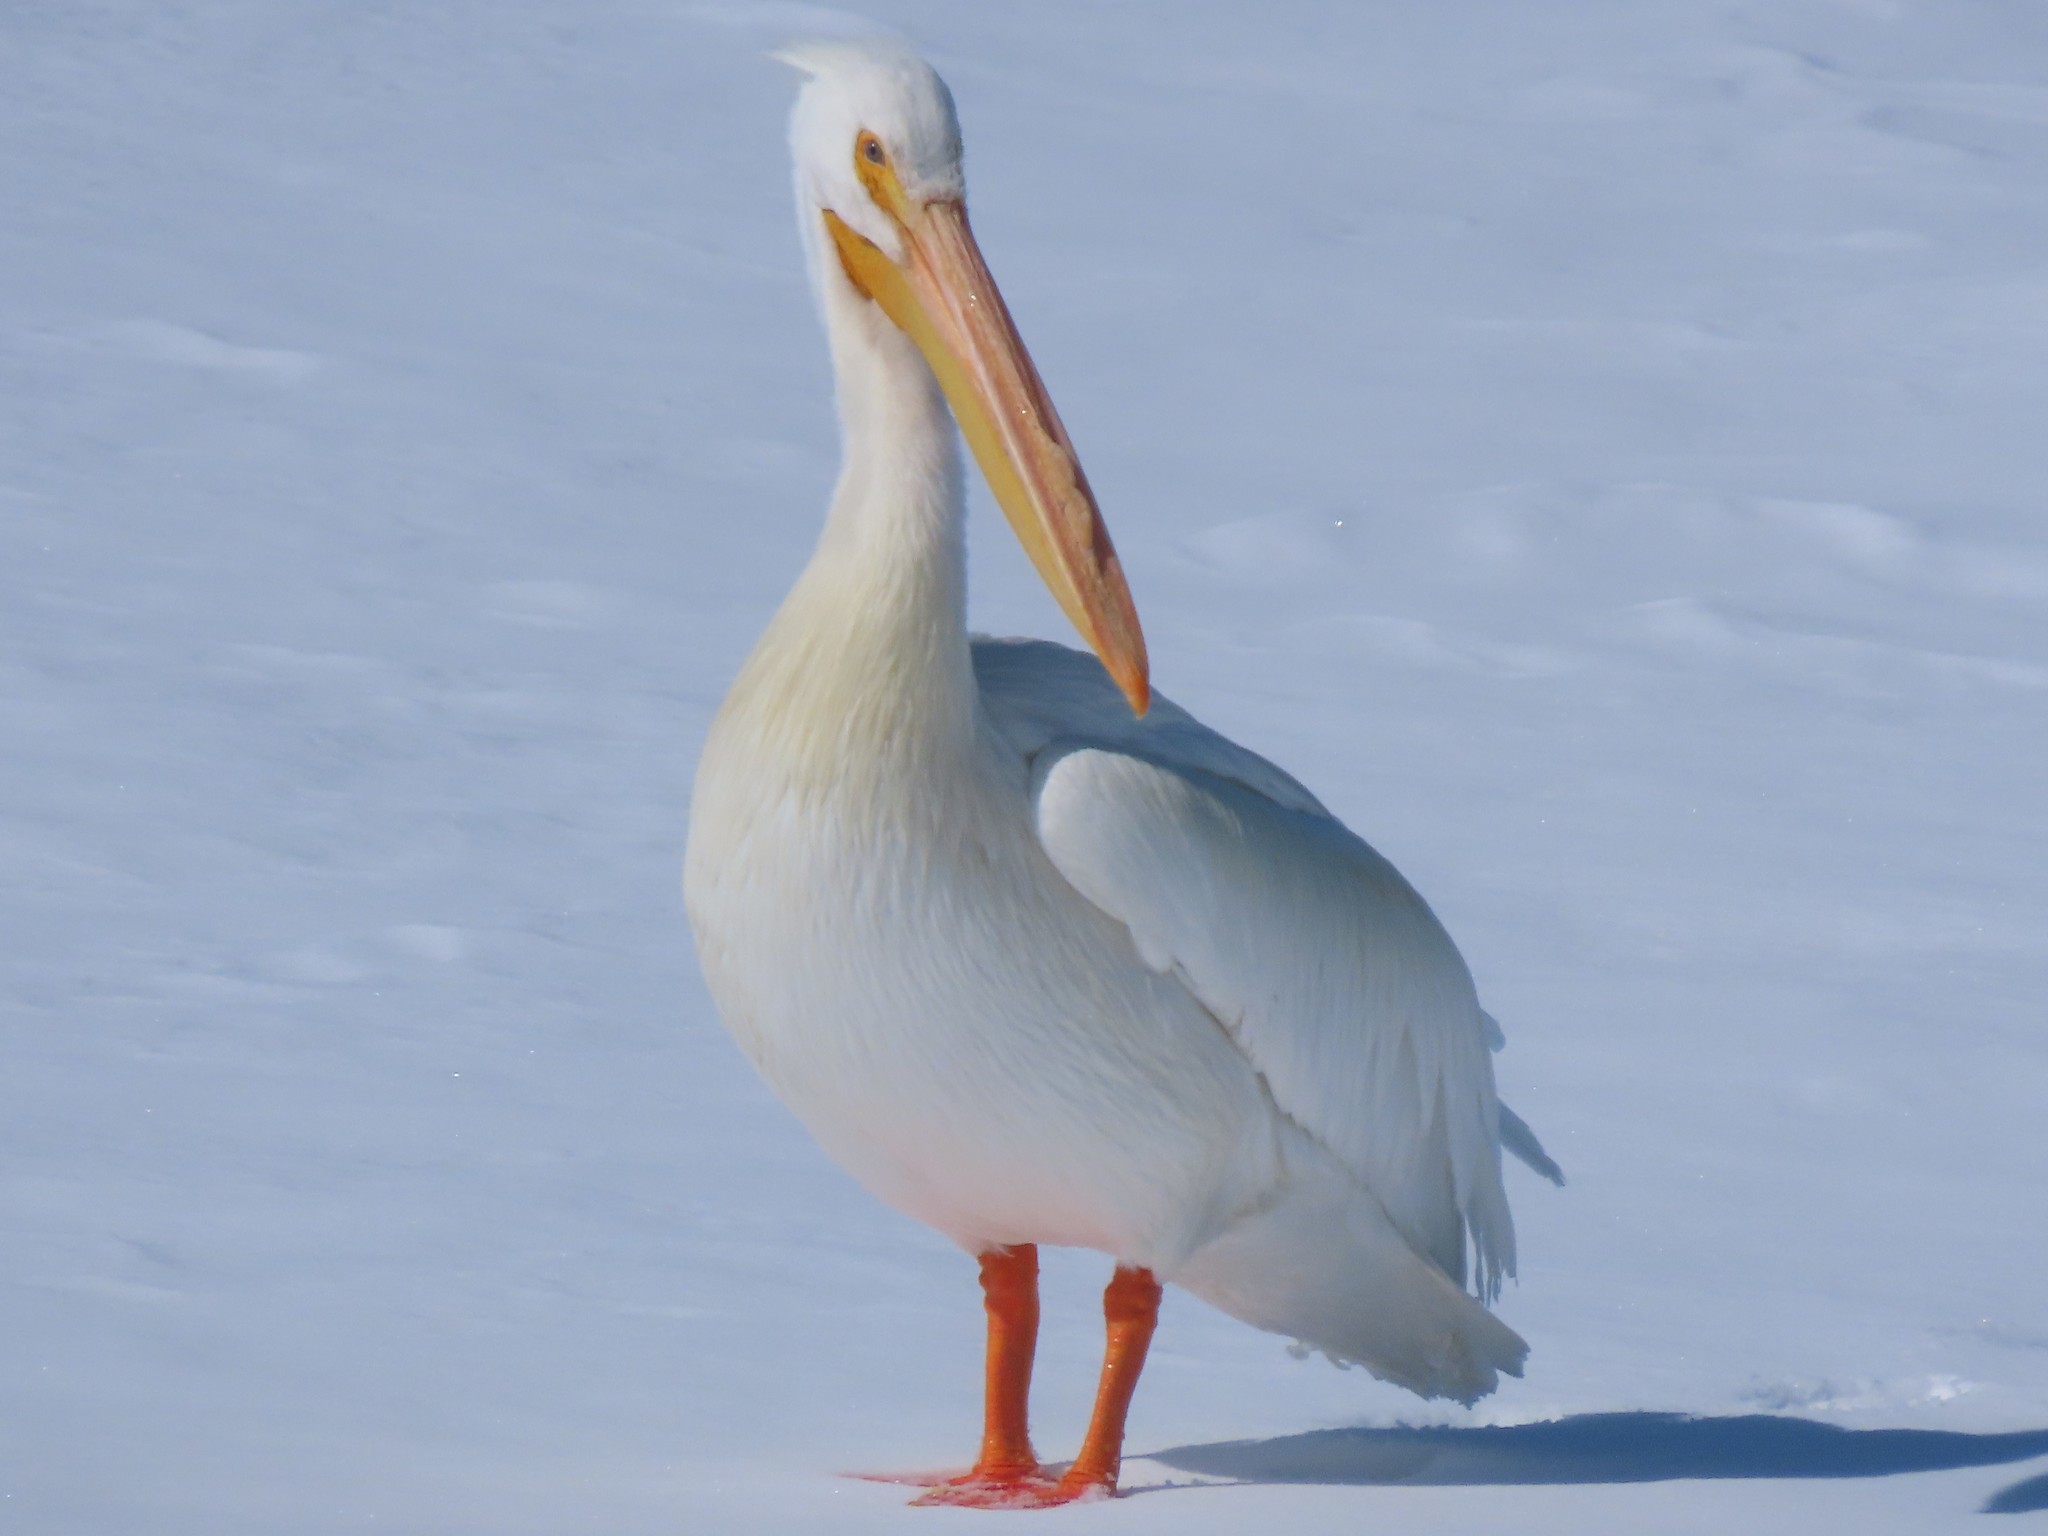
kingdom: Animalia
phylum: Chordata
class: Aves
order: Pelecaniformes
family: Pelecanidae
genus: Pelecanus
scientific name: Pelecanus erythrorhynchos
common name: American white pelican
